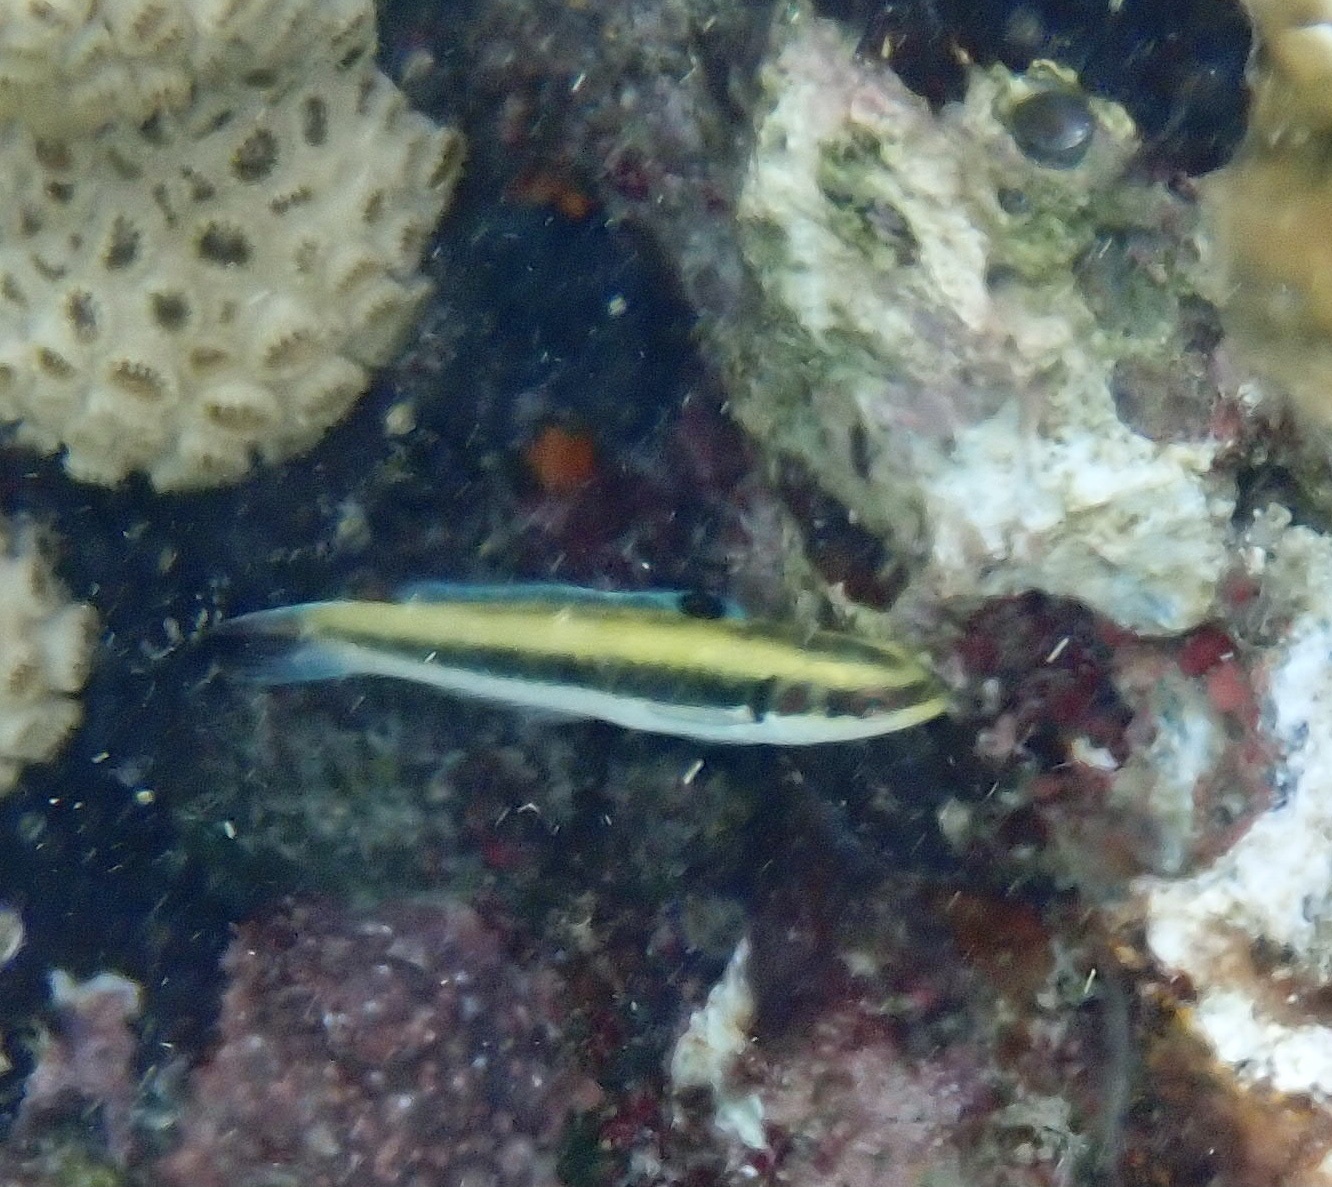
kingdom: Animalia
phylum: Chordata
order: Perciformes
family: Labridae
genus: Thalassoma
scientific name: Thalassoma bifasciatum
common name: Bluehead wrasse
